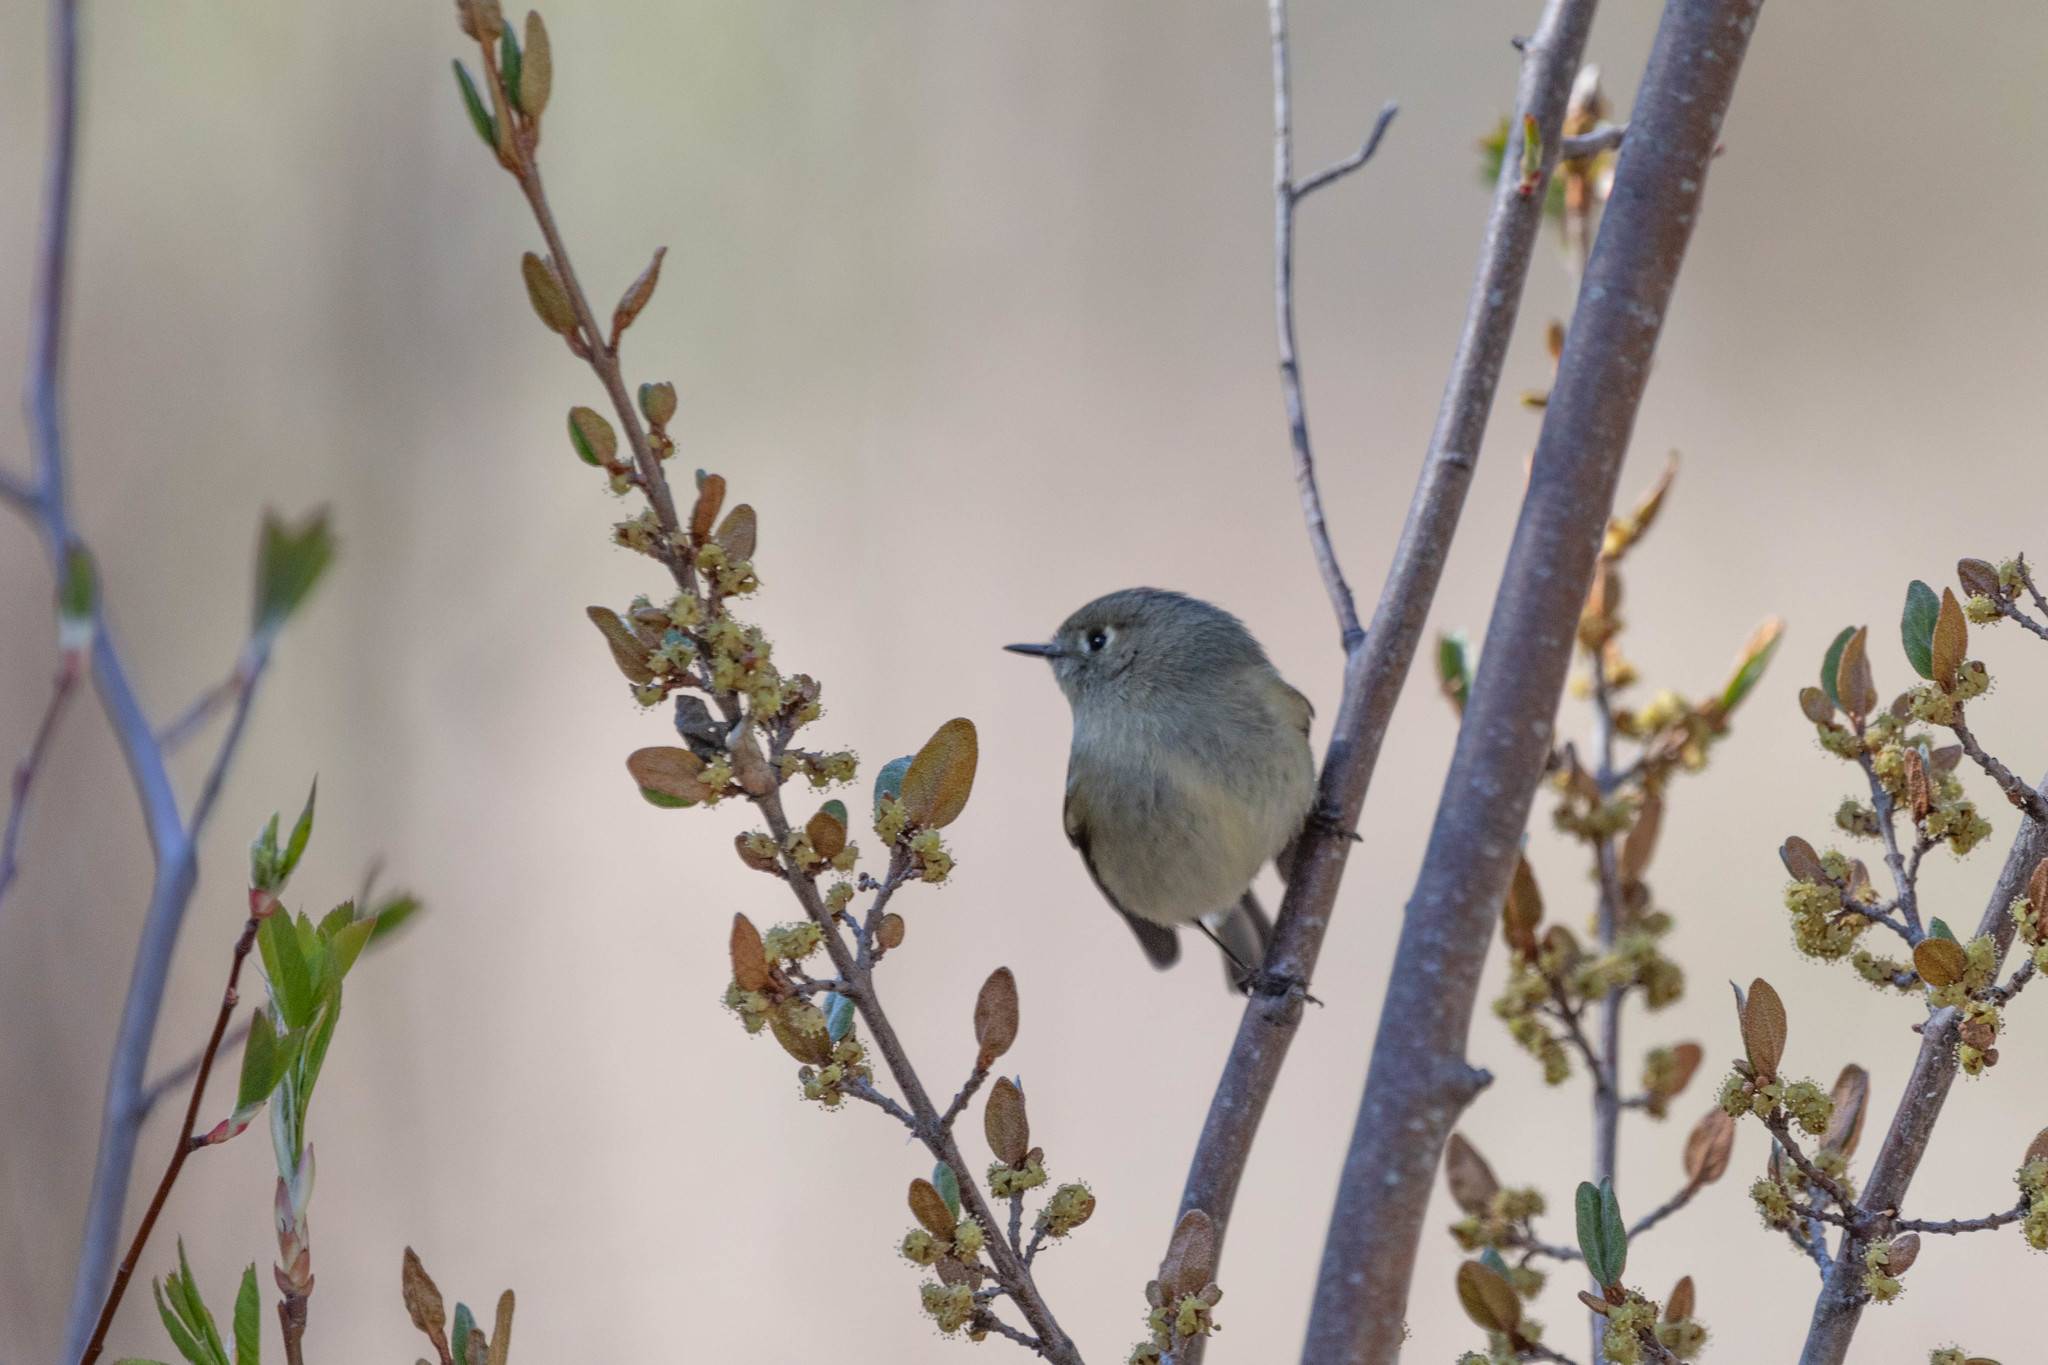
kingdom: Animalia
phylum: Chordata
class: Aves
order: Passeriformes
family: Regulidae
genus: Regulus
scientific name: Regulus calendula
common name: Ruby-crowned kinglet
